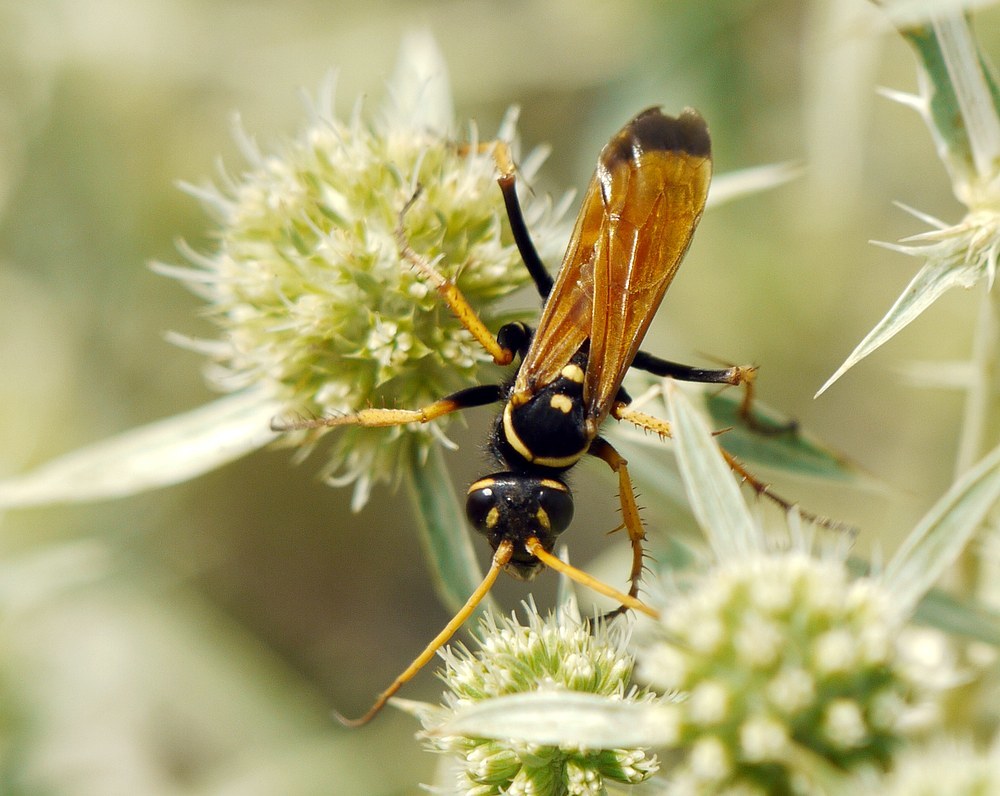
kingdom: Animalia
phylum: Arthropoda
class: Insecta
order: Hymenoptera
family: Pompilidae
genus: Parabatozonus
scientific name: Parabatozonus lacerticida
